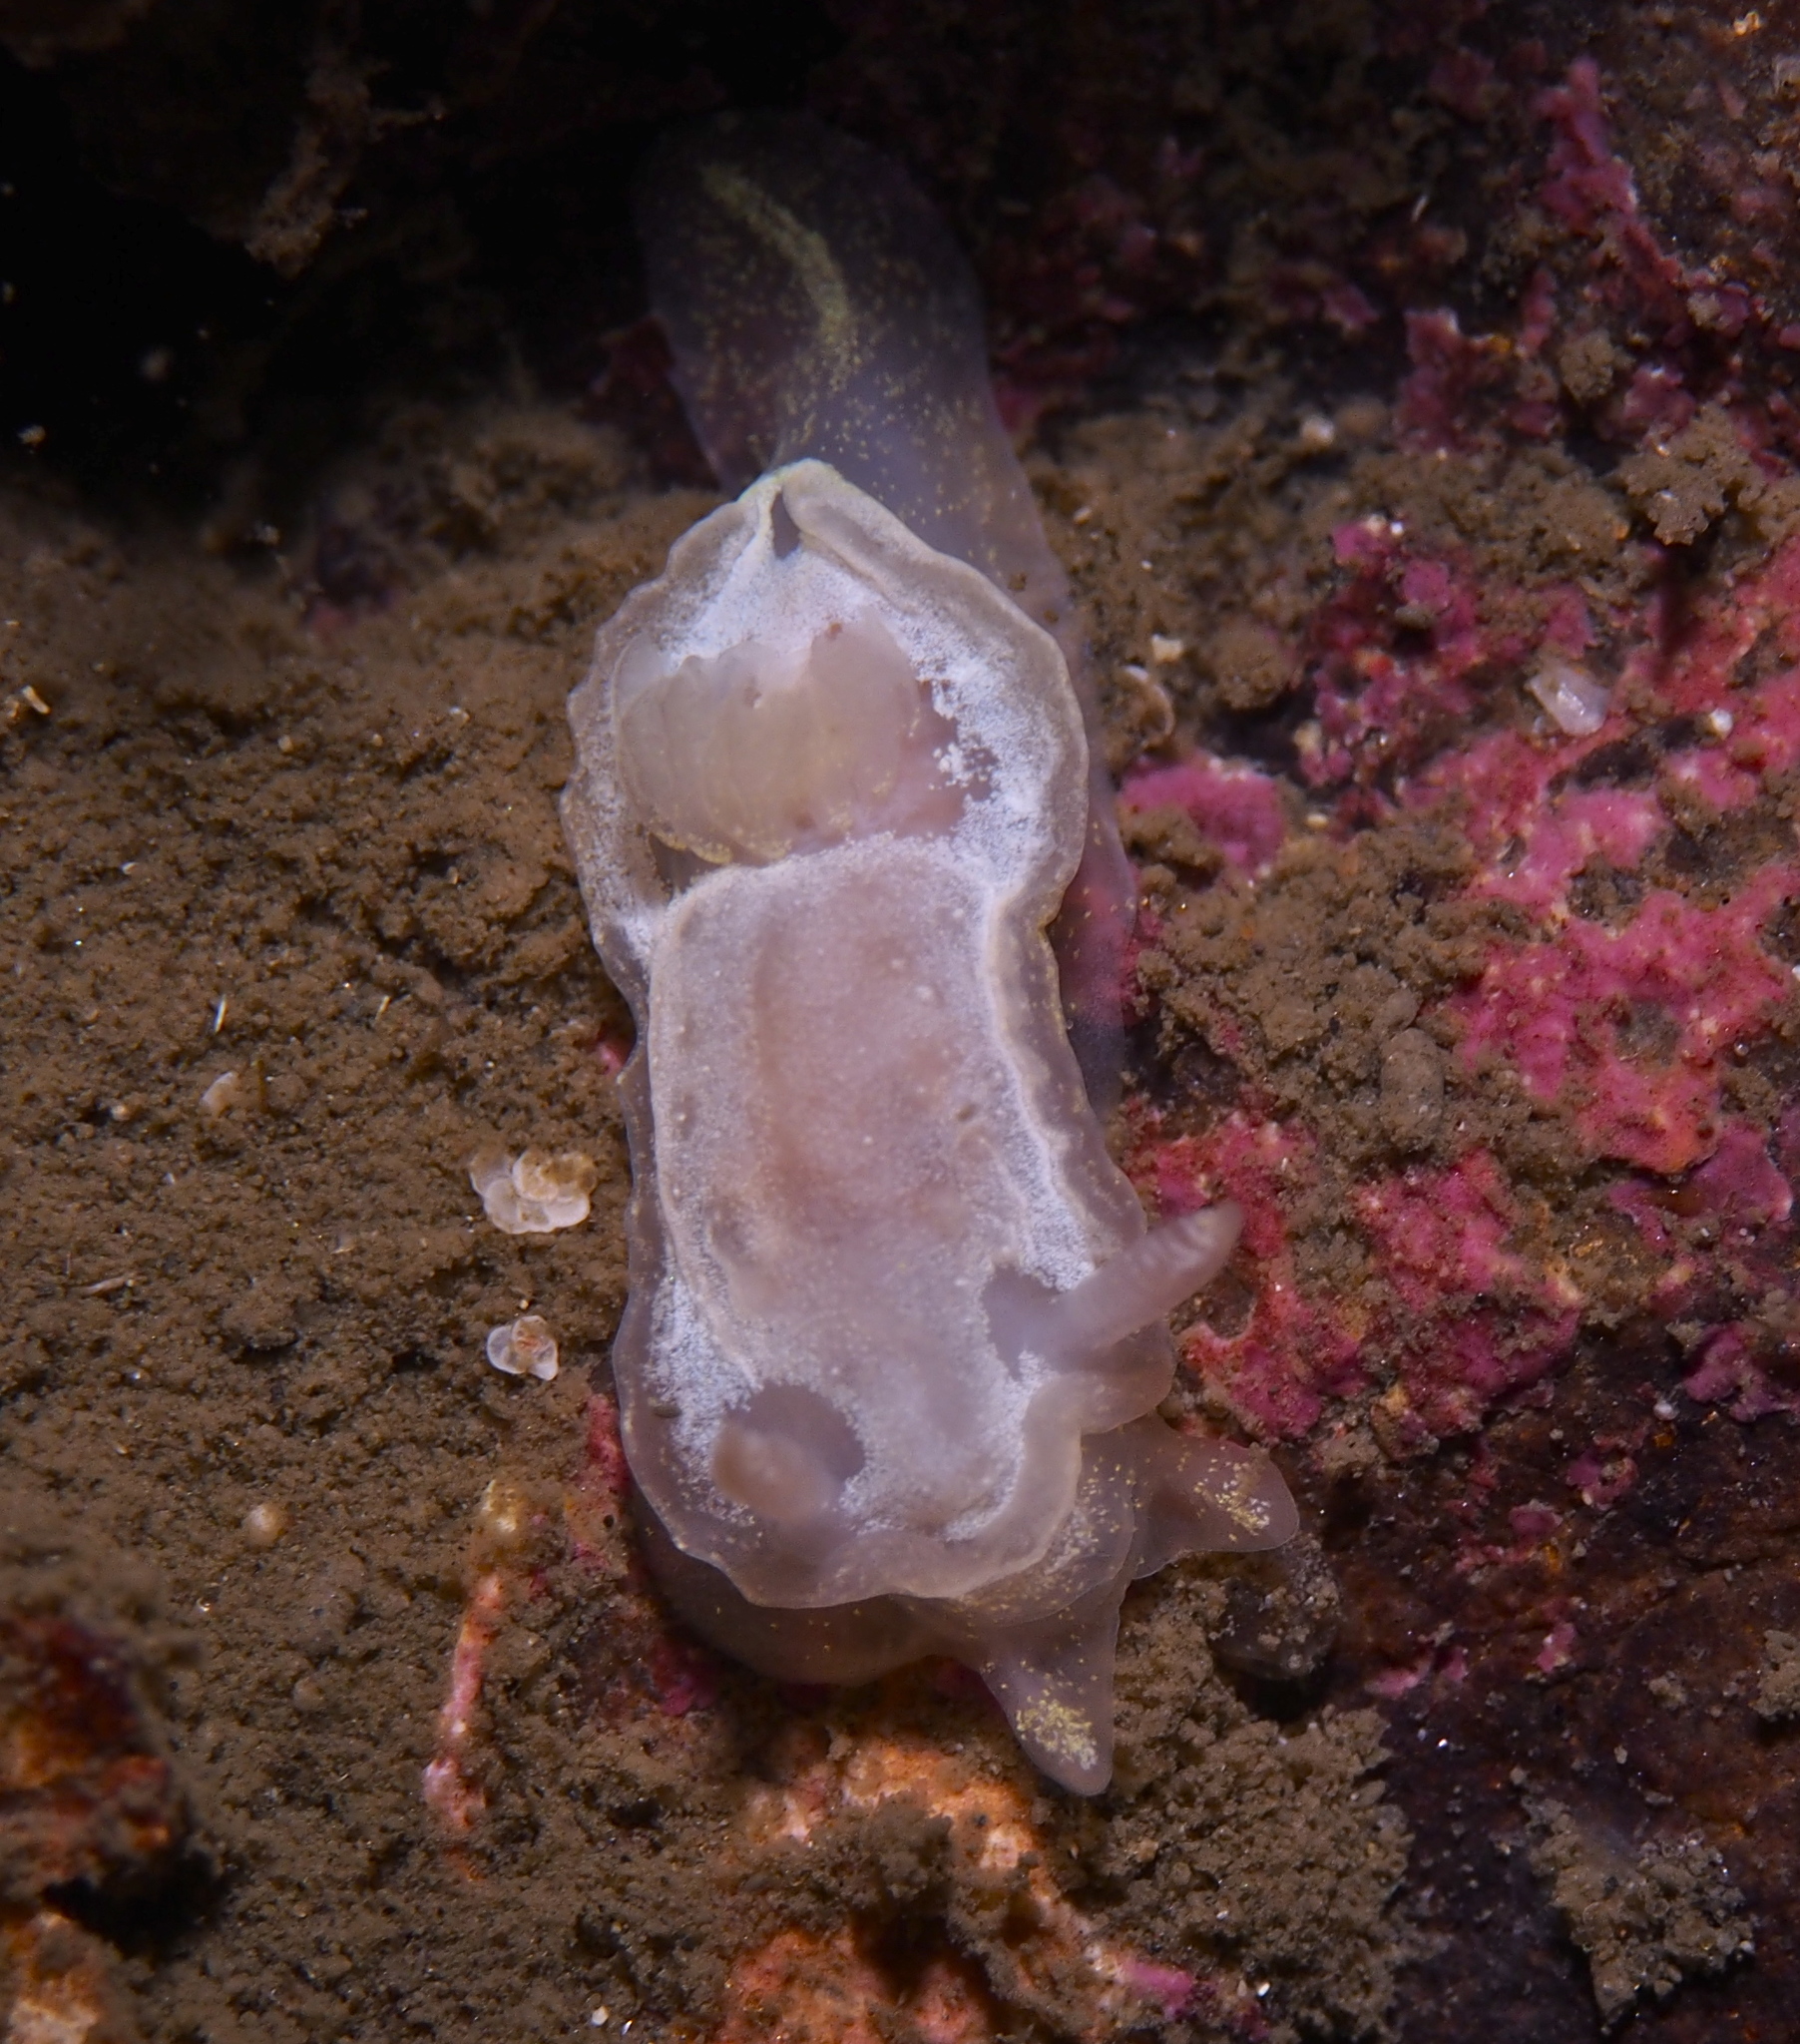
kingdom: Animalia
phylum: Mollusca
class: Gastropoda
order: Nudibranchia
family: Goniodorididae
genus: Okenia
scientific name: Okenia
